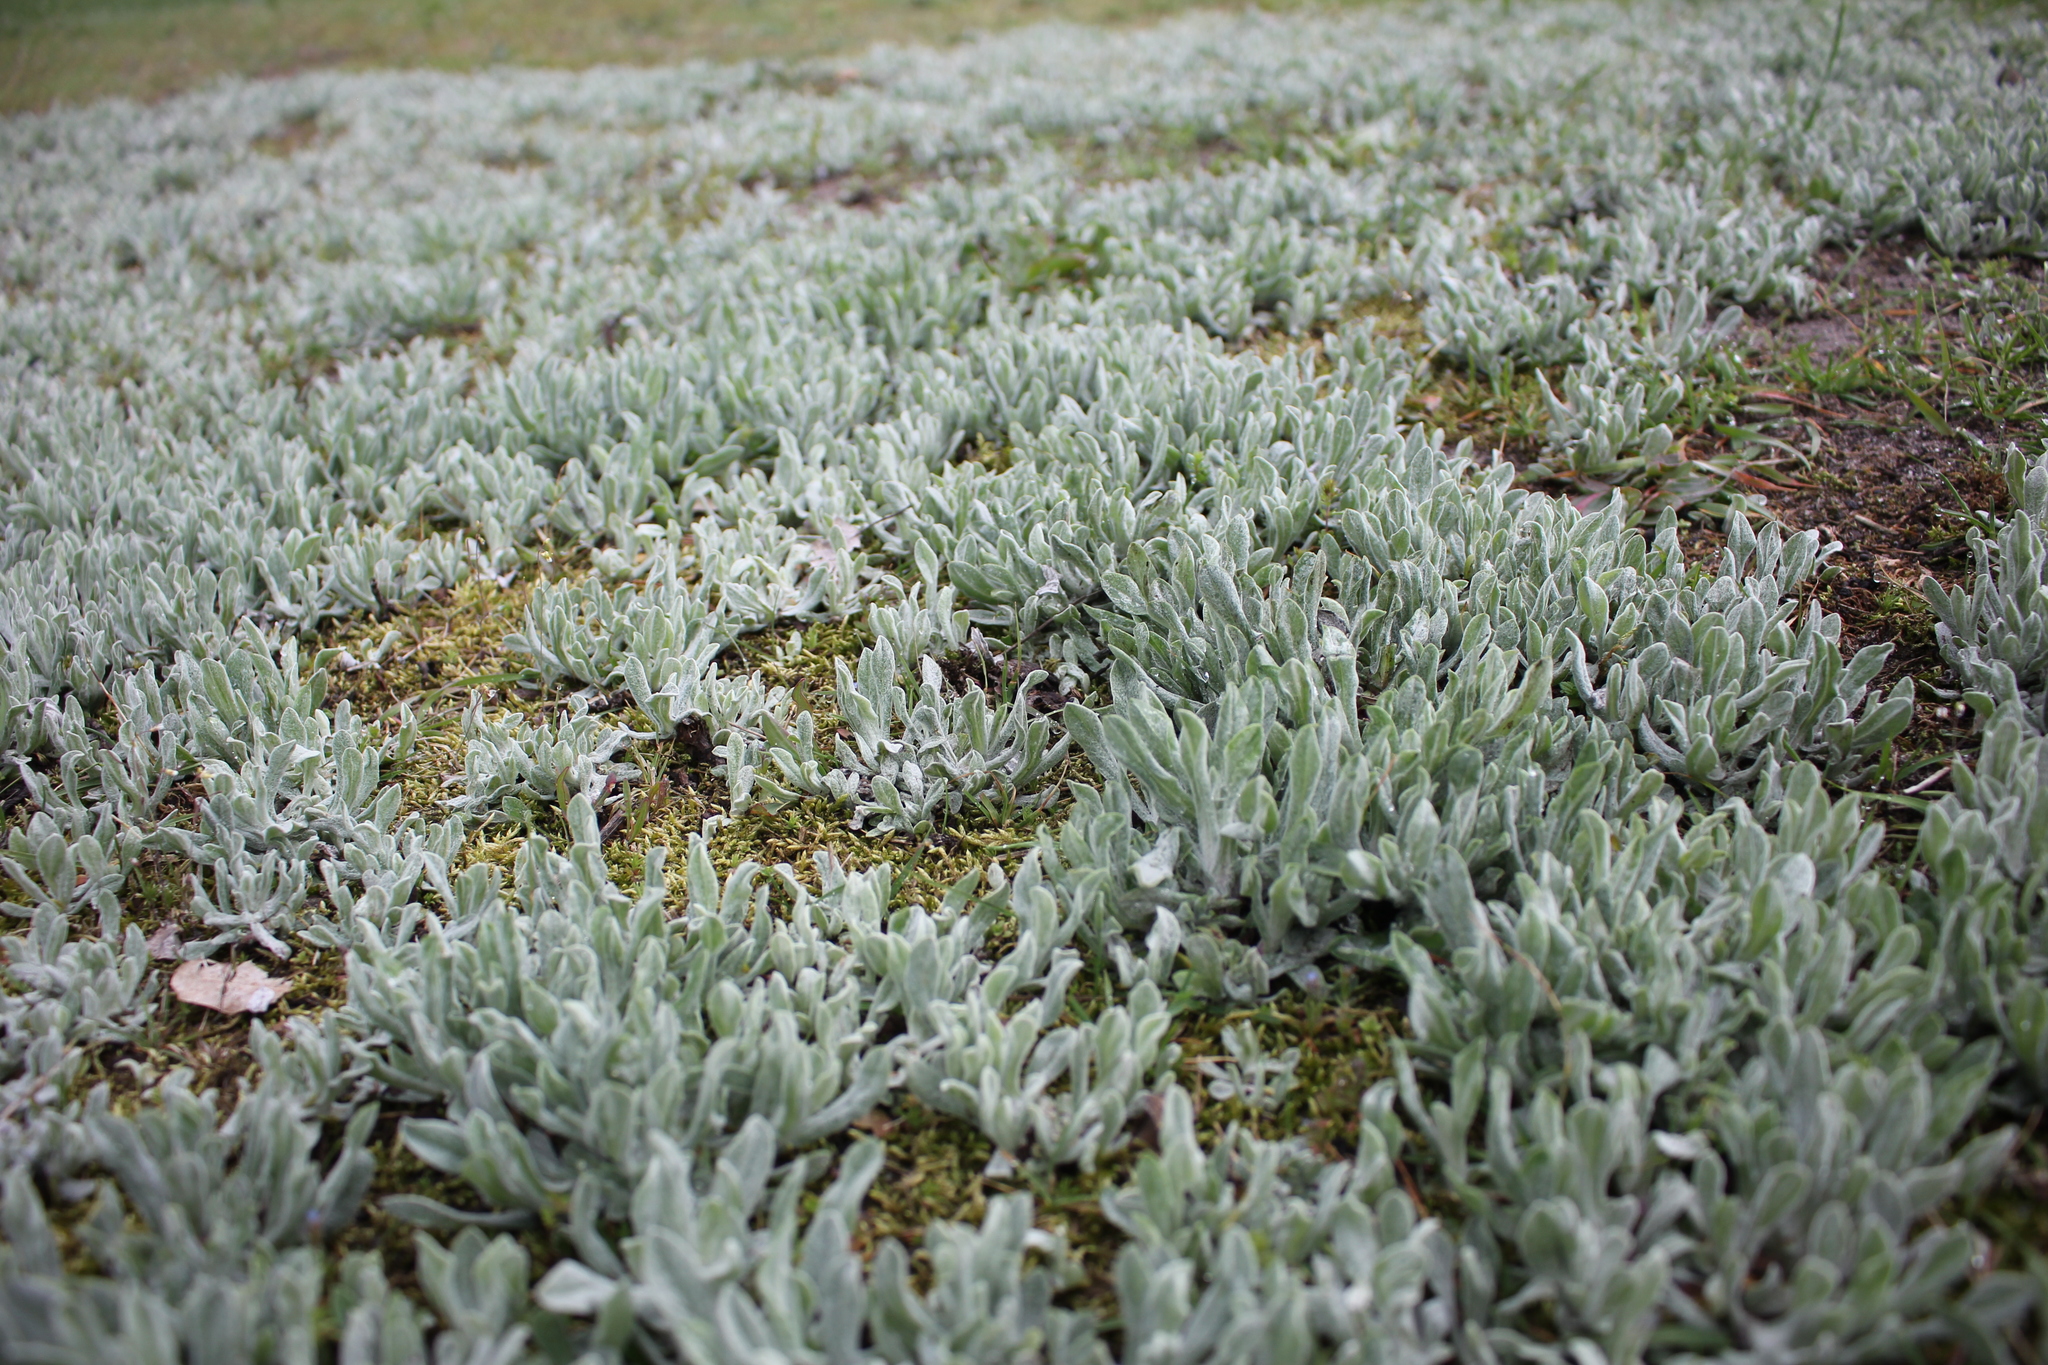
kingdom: Plantae
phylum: Tracheophyta
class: Magnoliopsida
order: Asterales
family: Asteraceae
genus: Helichrysum
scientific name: Helichrysum arenarium
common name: Strawflower
